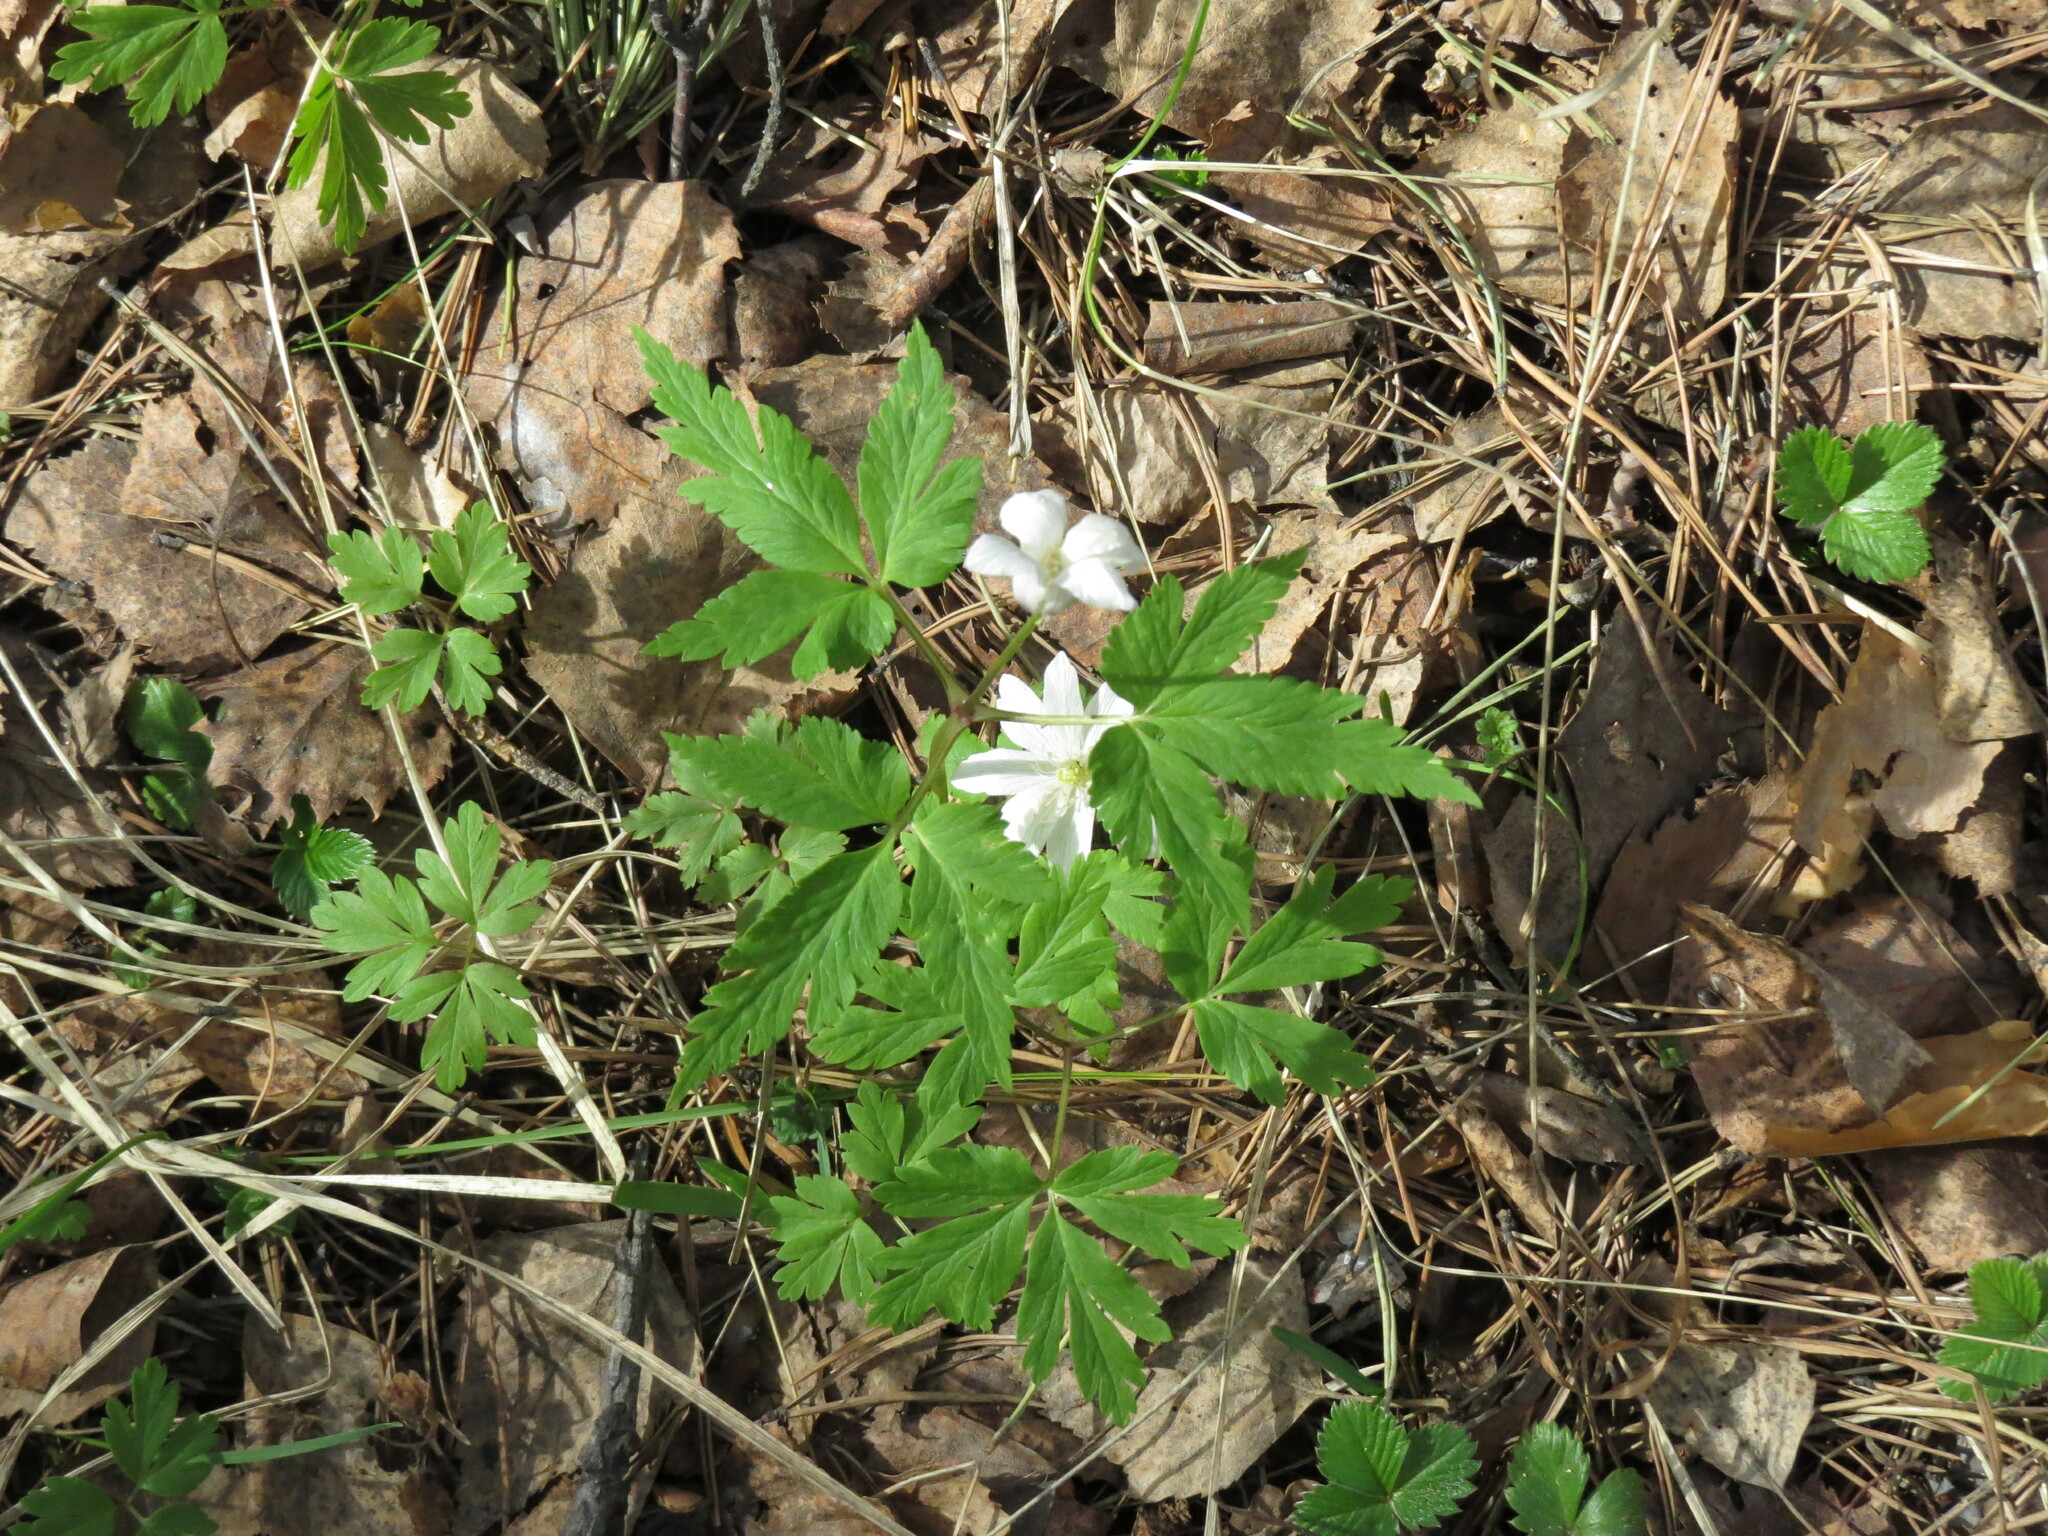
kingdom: Plantae
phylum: Tracheophyta
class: Magnoliopsida
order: Ranunculales
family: Ranunculaceae
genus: Anemone
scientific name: Anemone altaica
